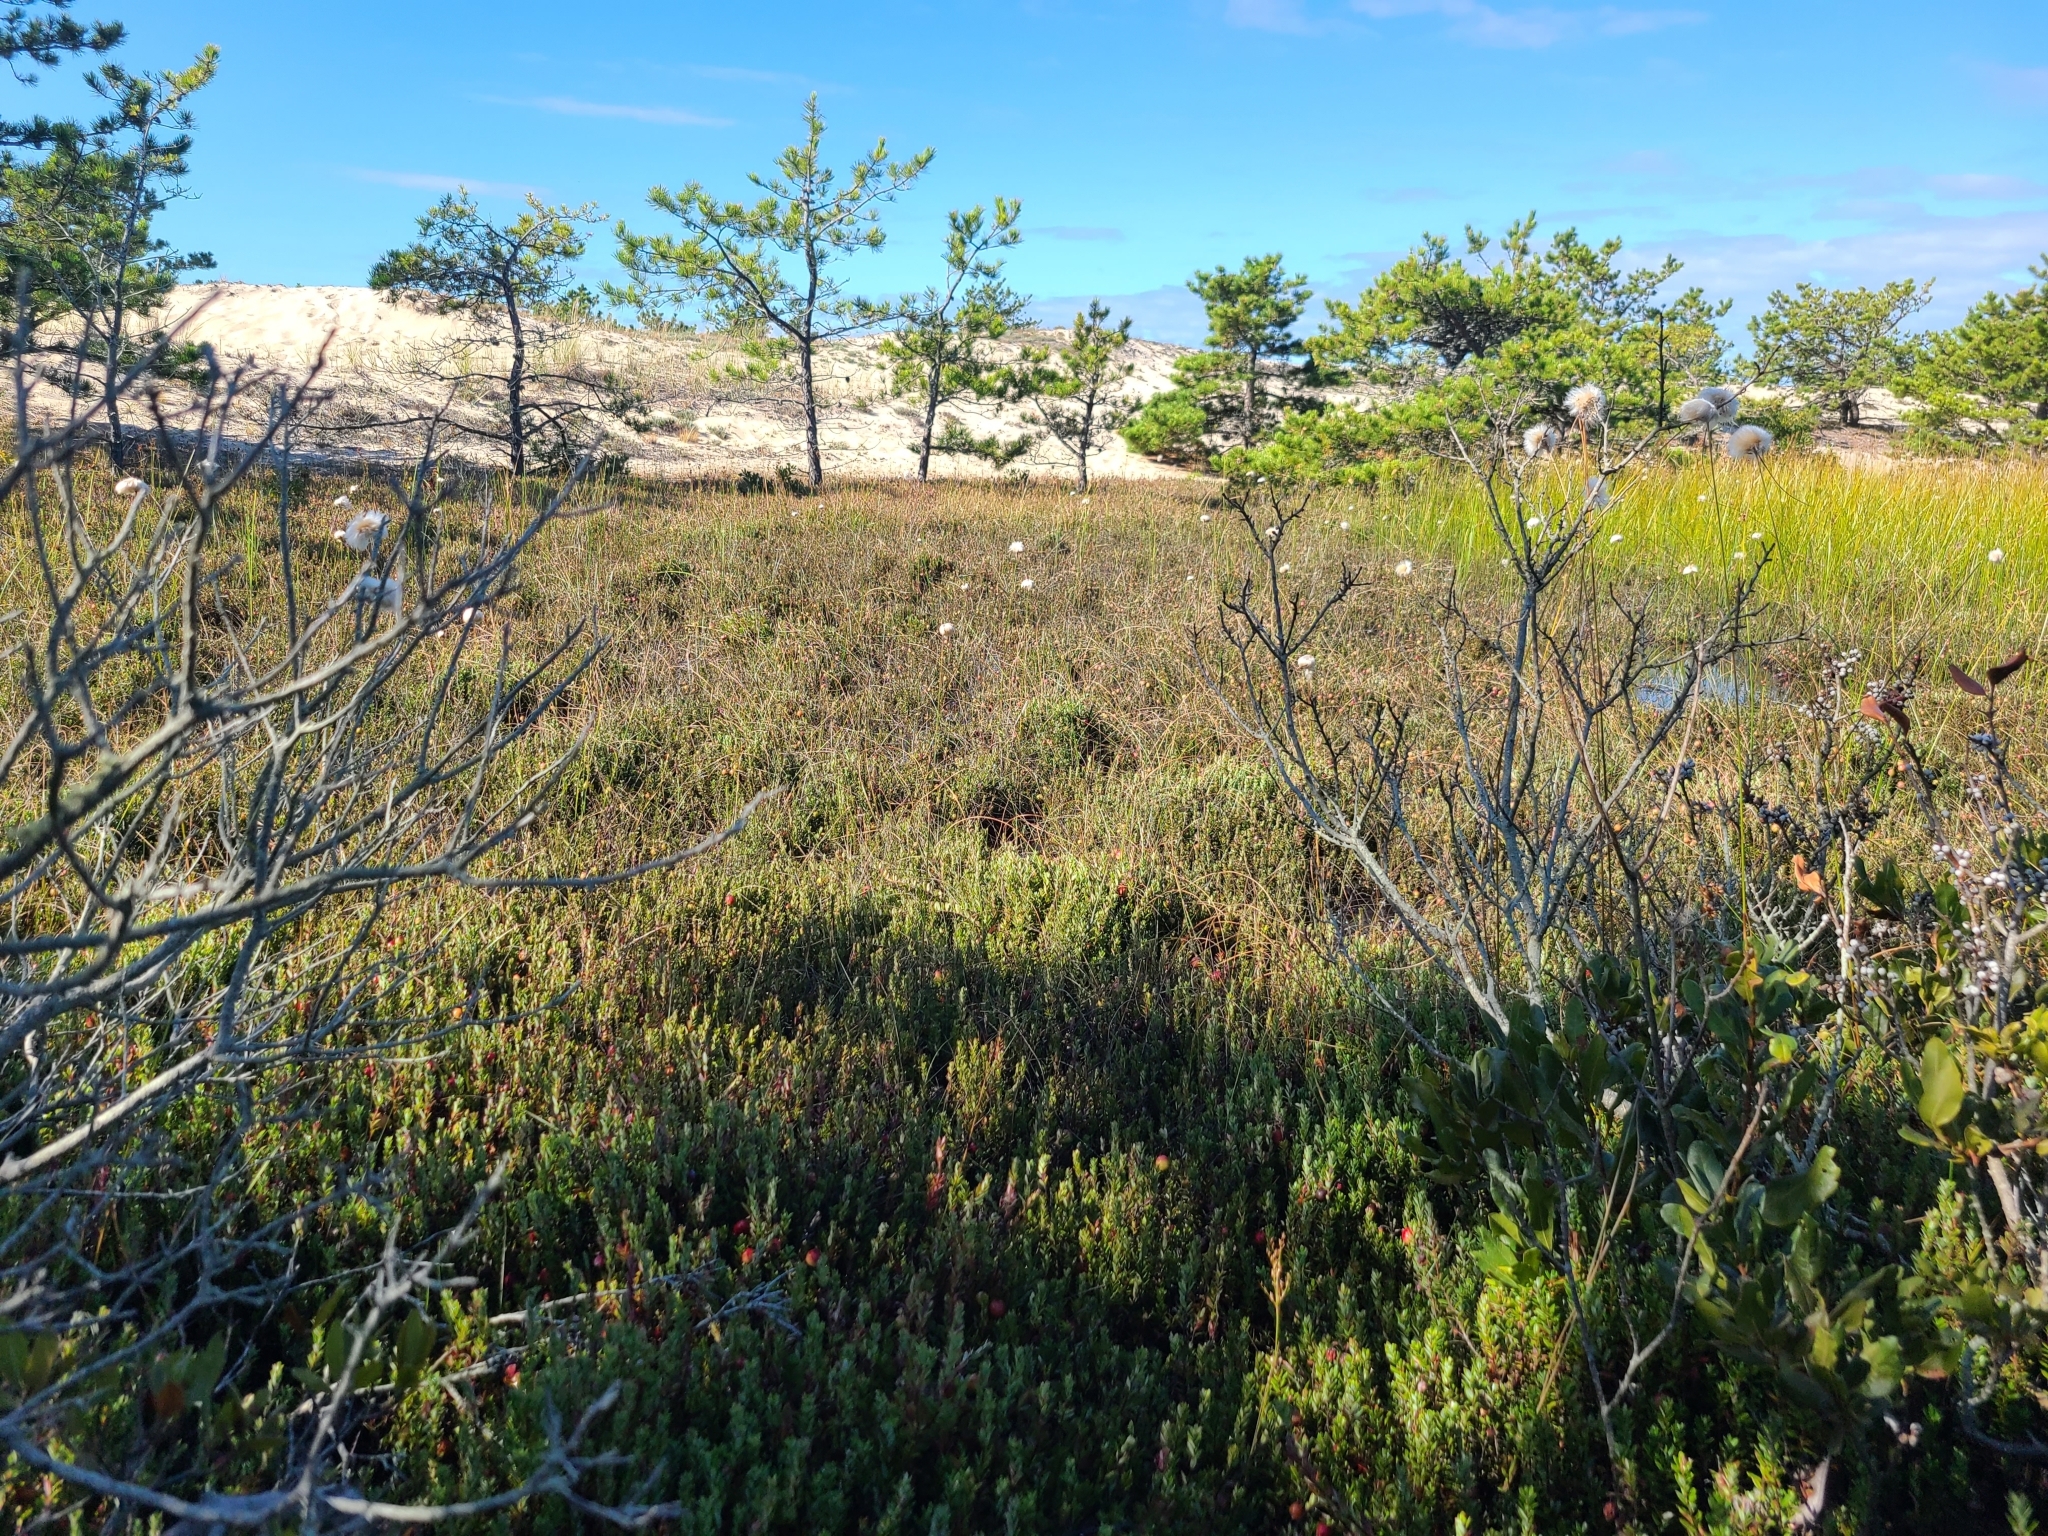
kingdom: Plantae
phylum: Tracheophyta
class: Magnoliopsida
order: Ericales
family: Ericaceae
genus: Vaccinium
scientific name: Vaccinium macrocarpon
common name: American cranberry
